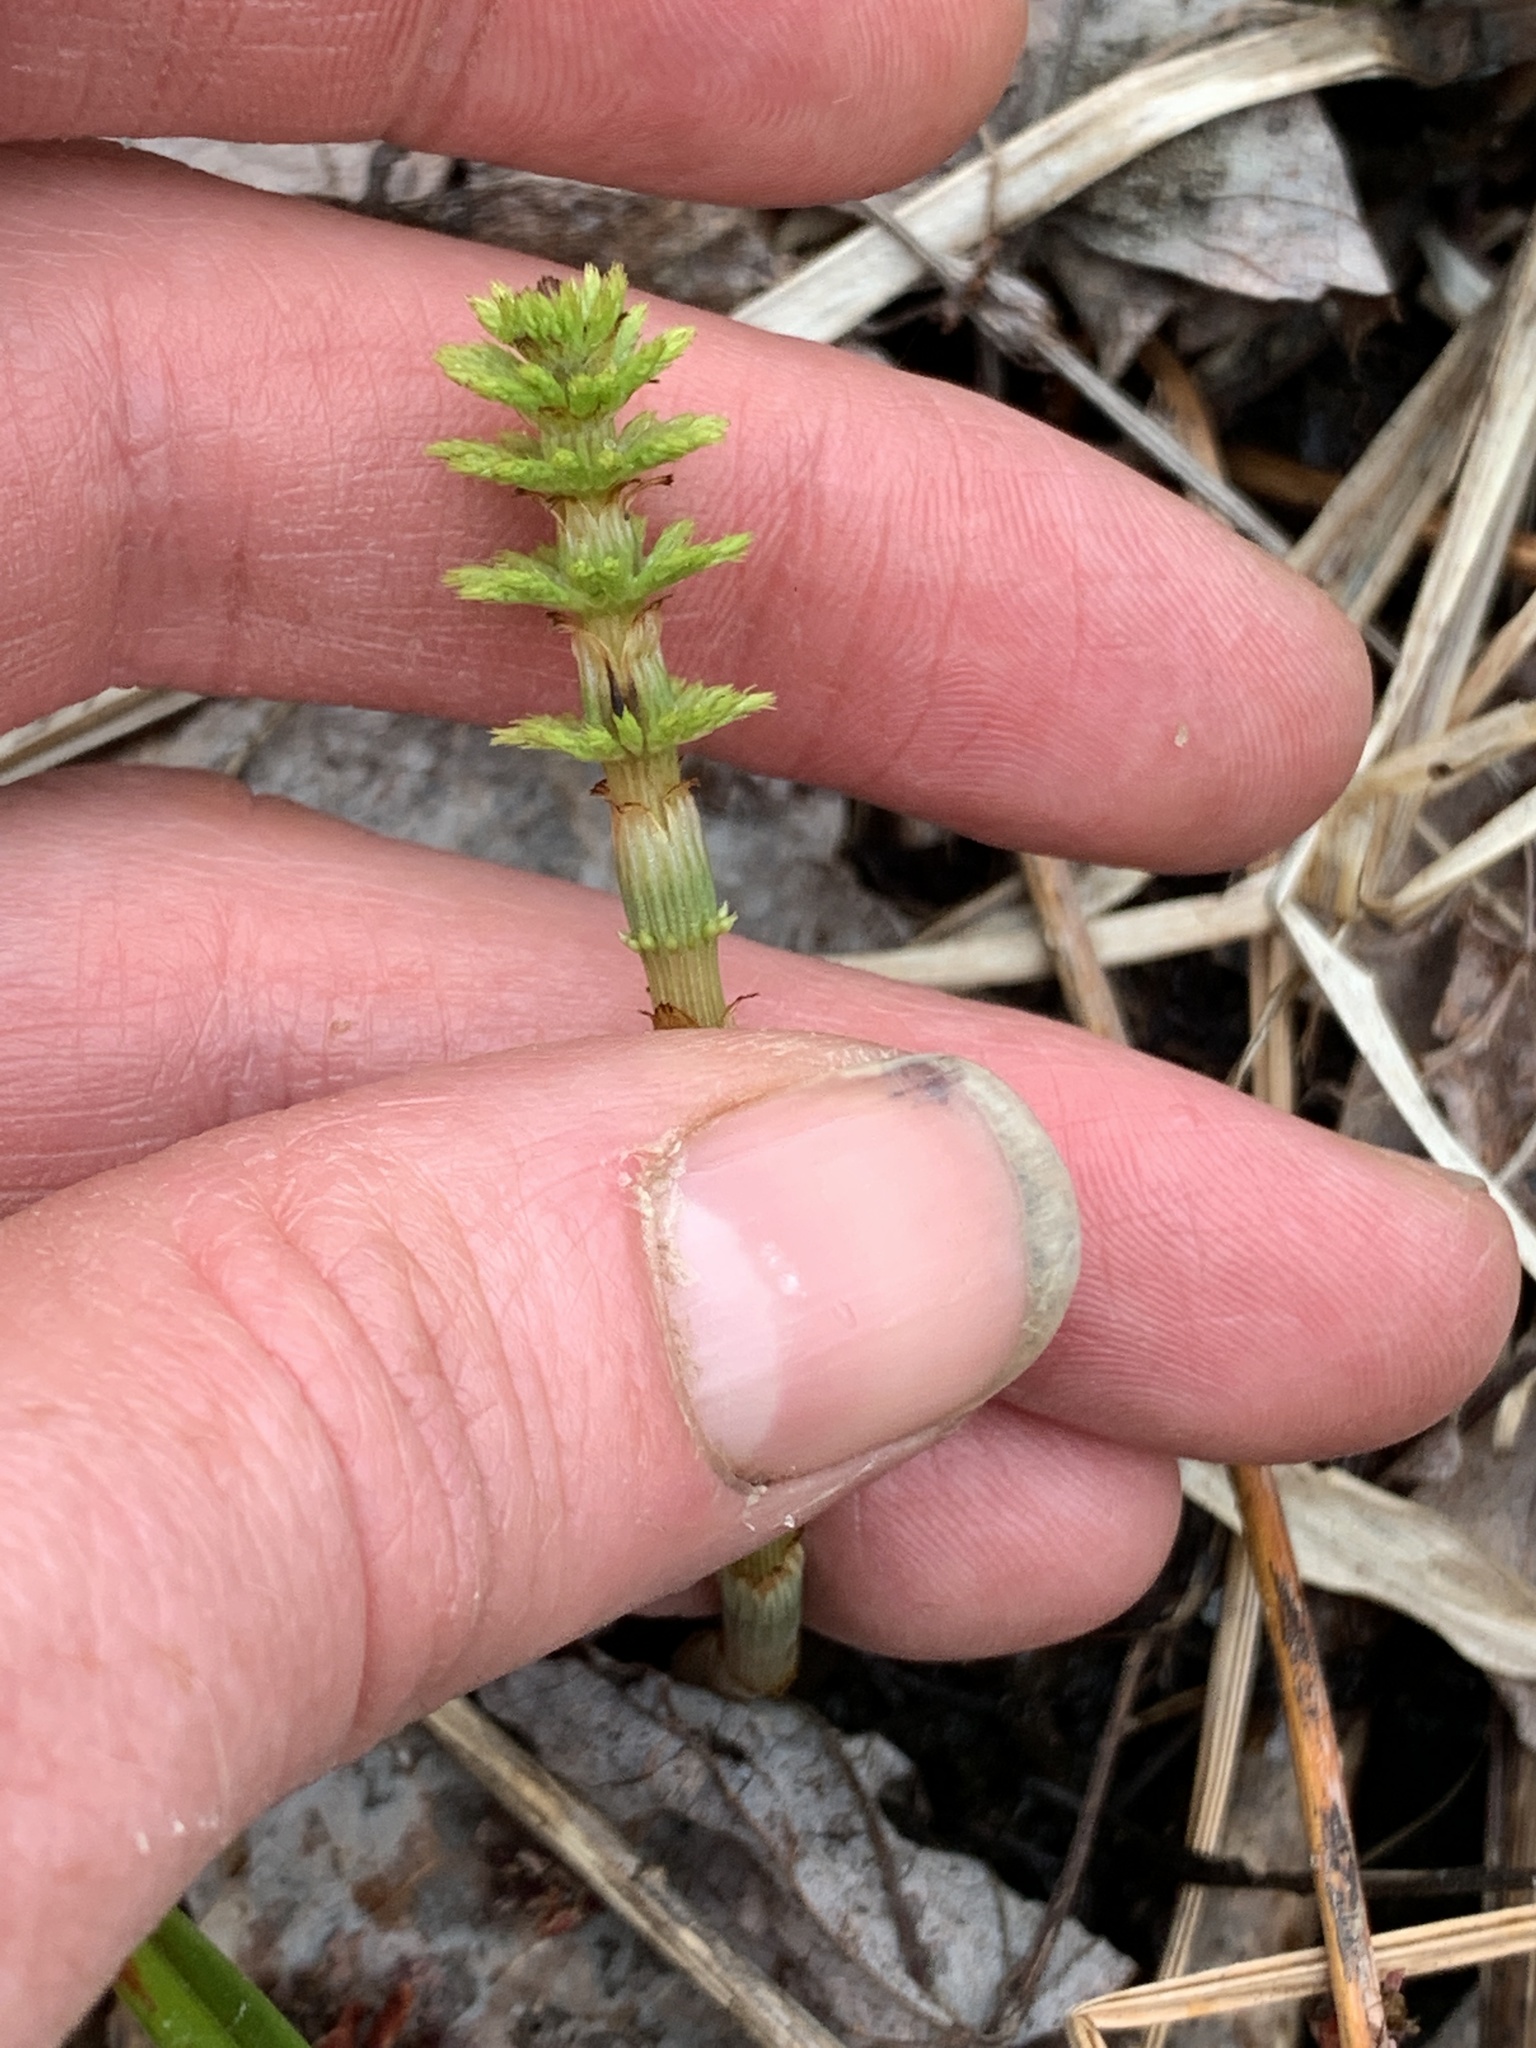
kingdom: Plantae
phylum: Tracheophyta
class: Polypodiopsida
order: Equisetales
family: Equisetaceae
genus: Equisetum
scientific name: Equisetum sylvaticum
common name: Wood horsetail
